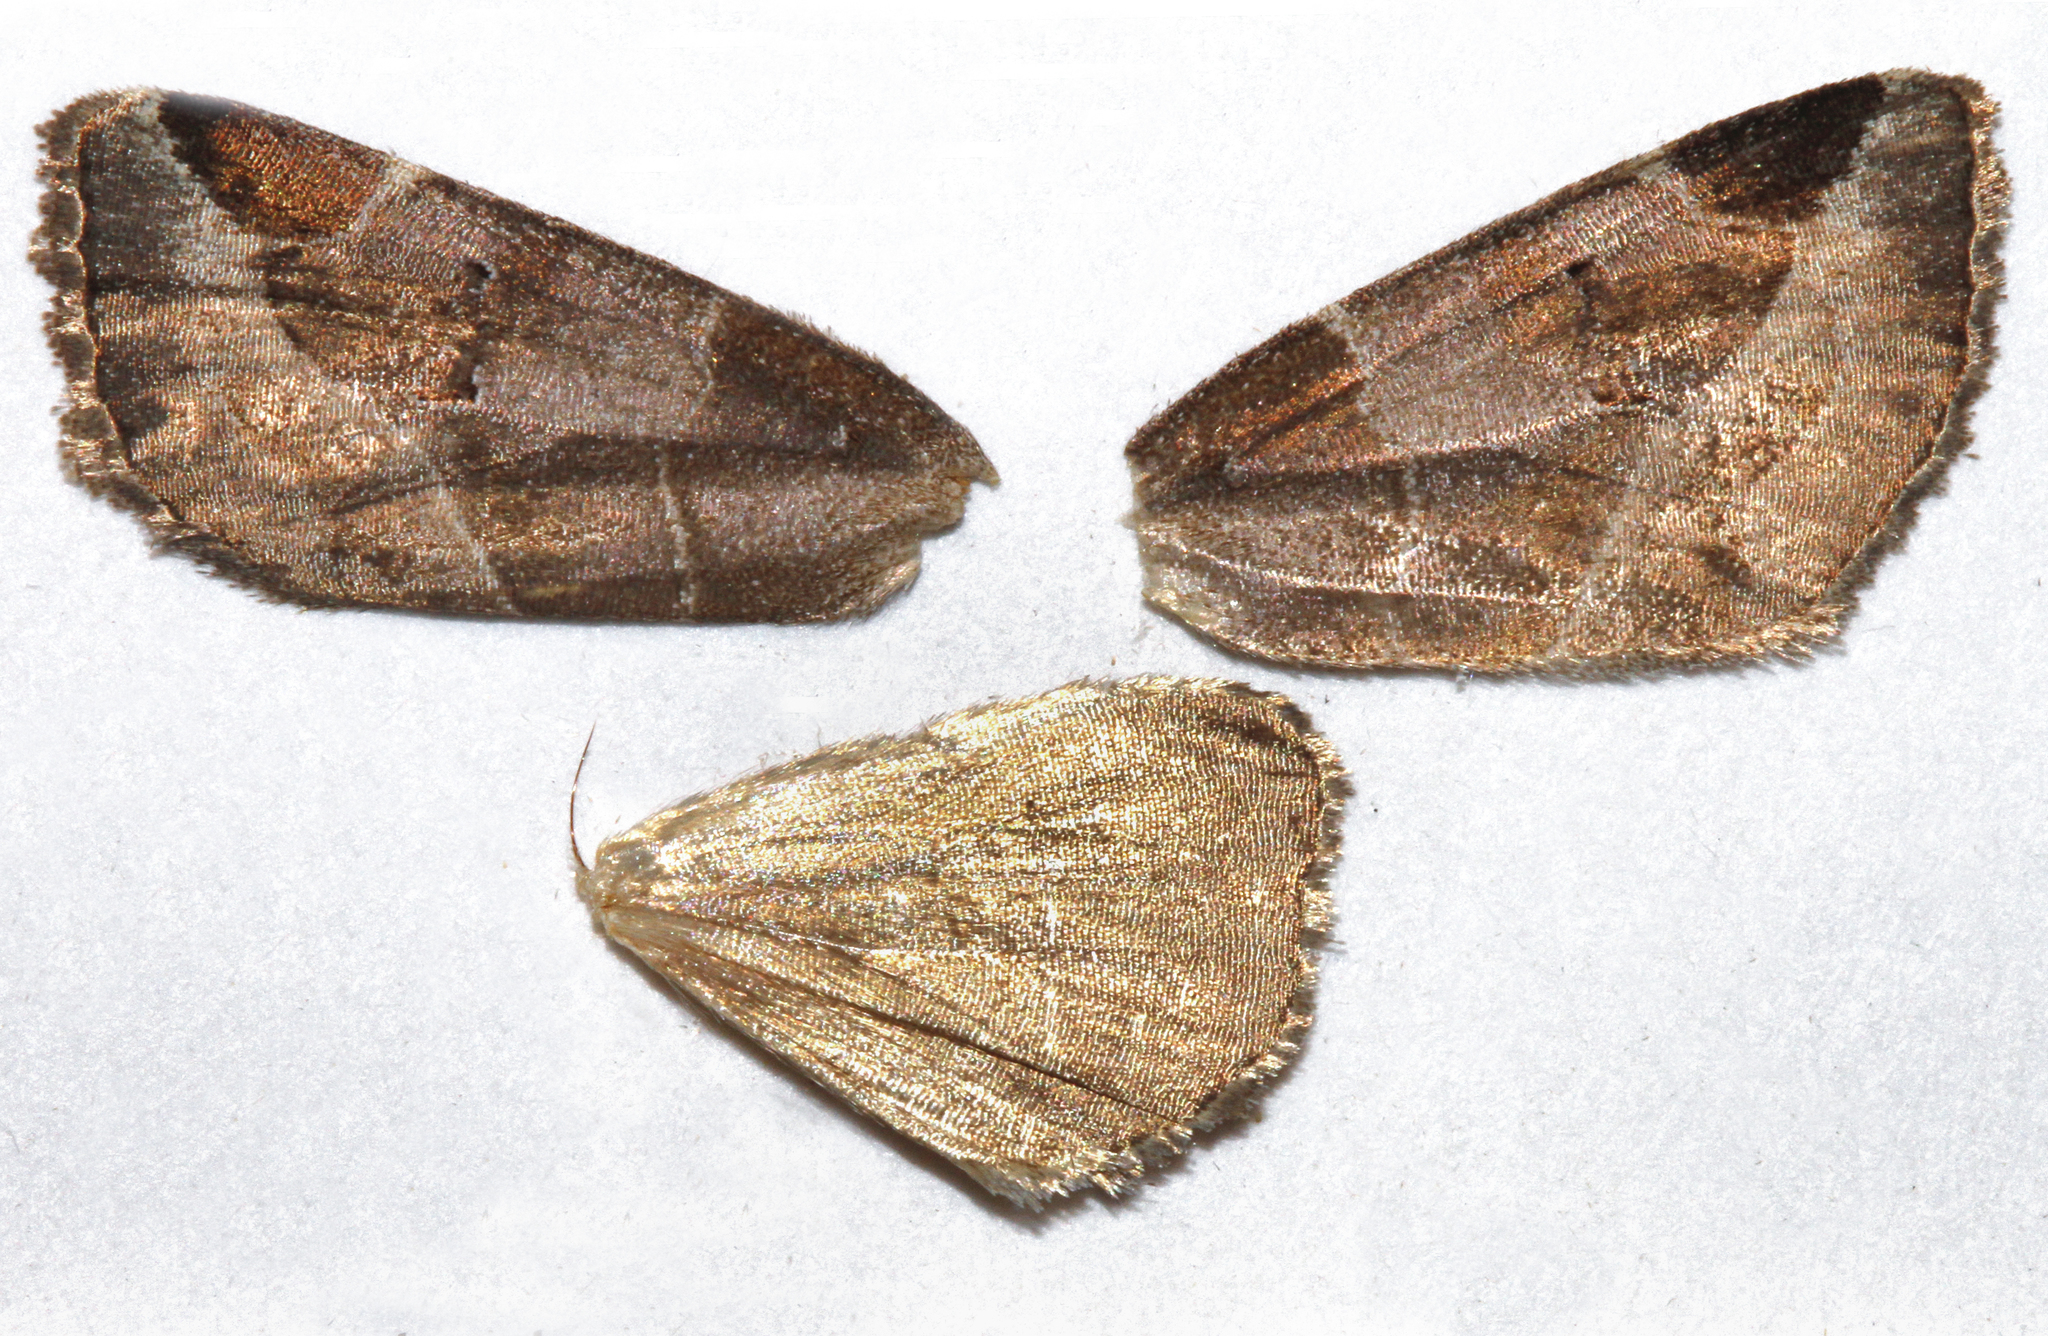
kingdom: Animalia
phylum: Arthropoda
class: Insecta
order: Lepidoptera
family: Noctuidae
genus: Plagiomimicus
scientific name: Plagiomimicus pityochromus
